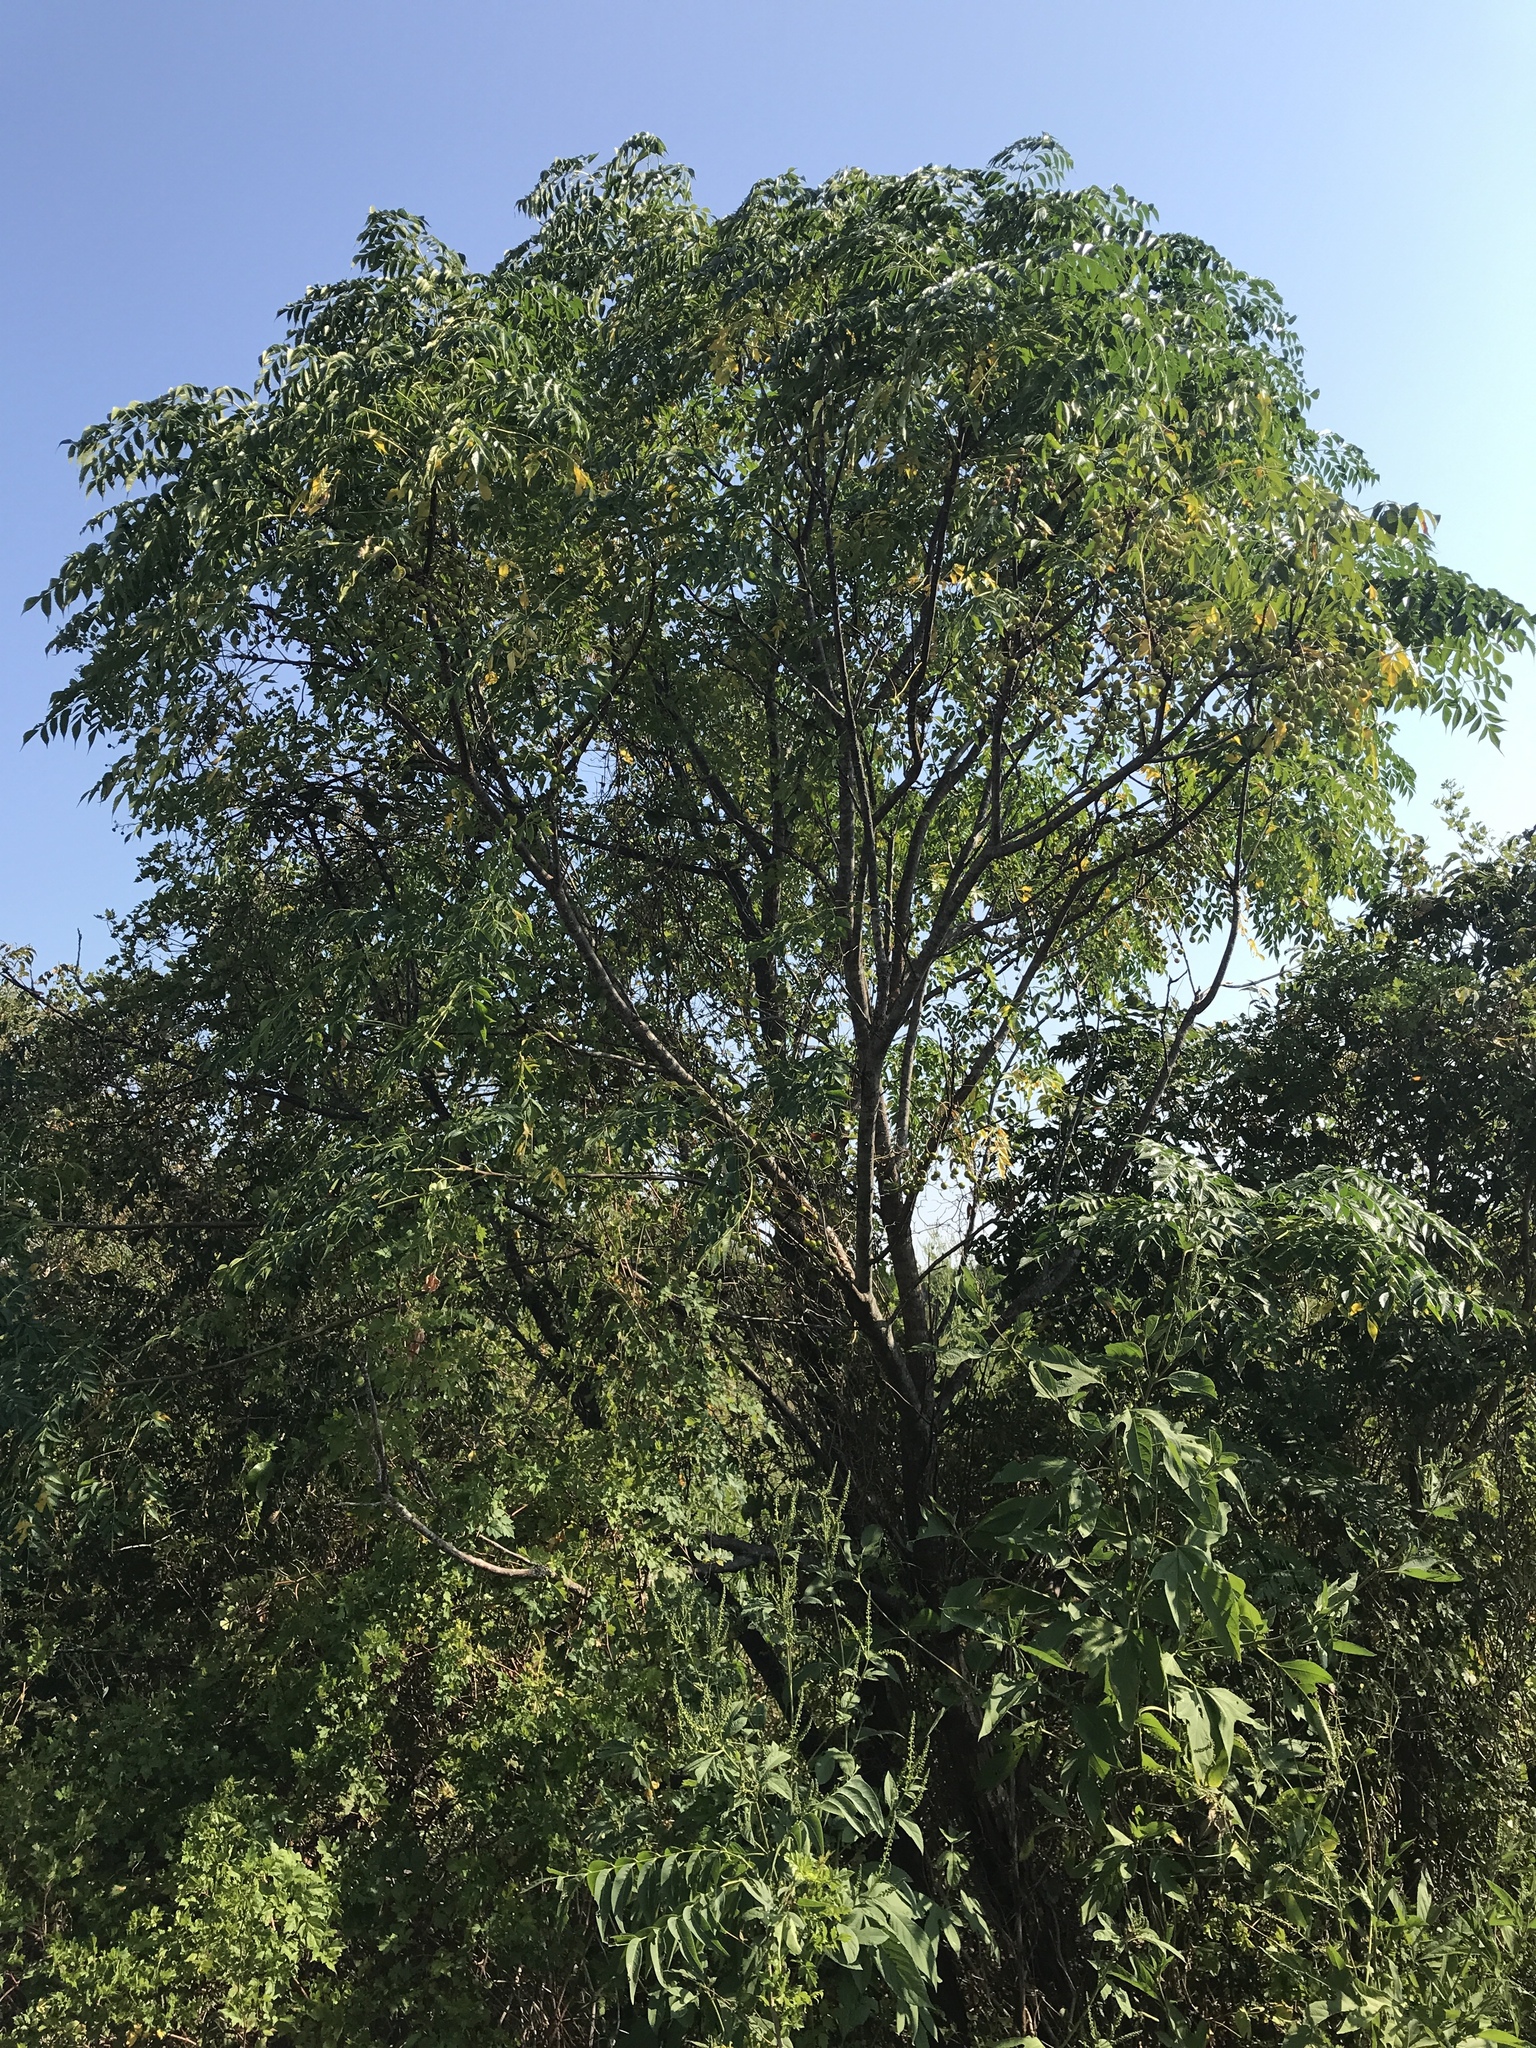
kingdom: Plantae
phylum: Tracheophyta
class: Magnoliopsida
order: Sapindales
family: Meliaceae
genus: Melia
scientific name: Melia azedarach
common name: Chinaberrytree
